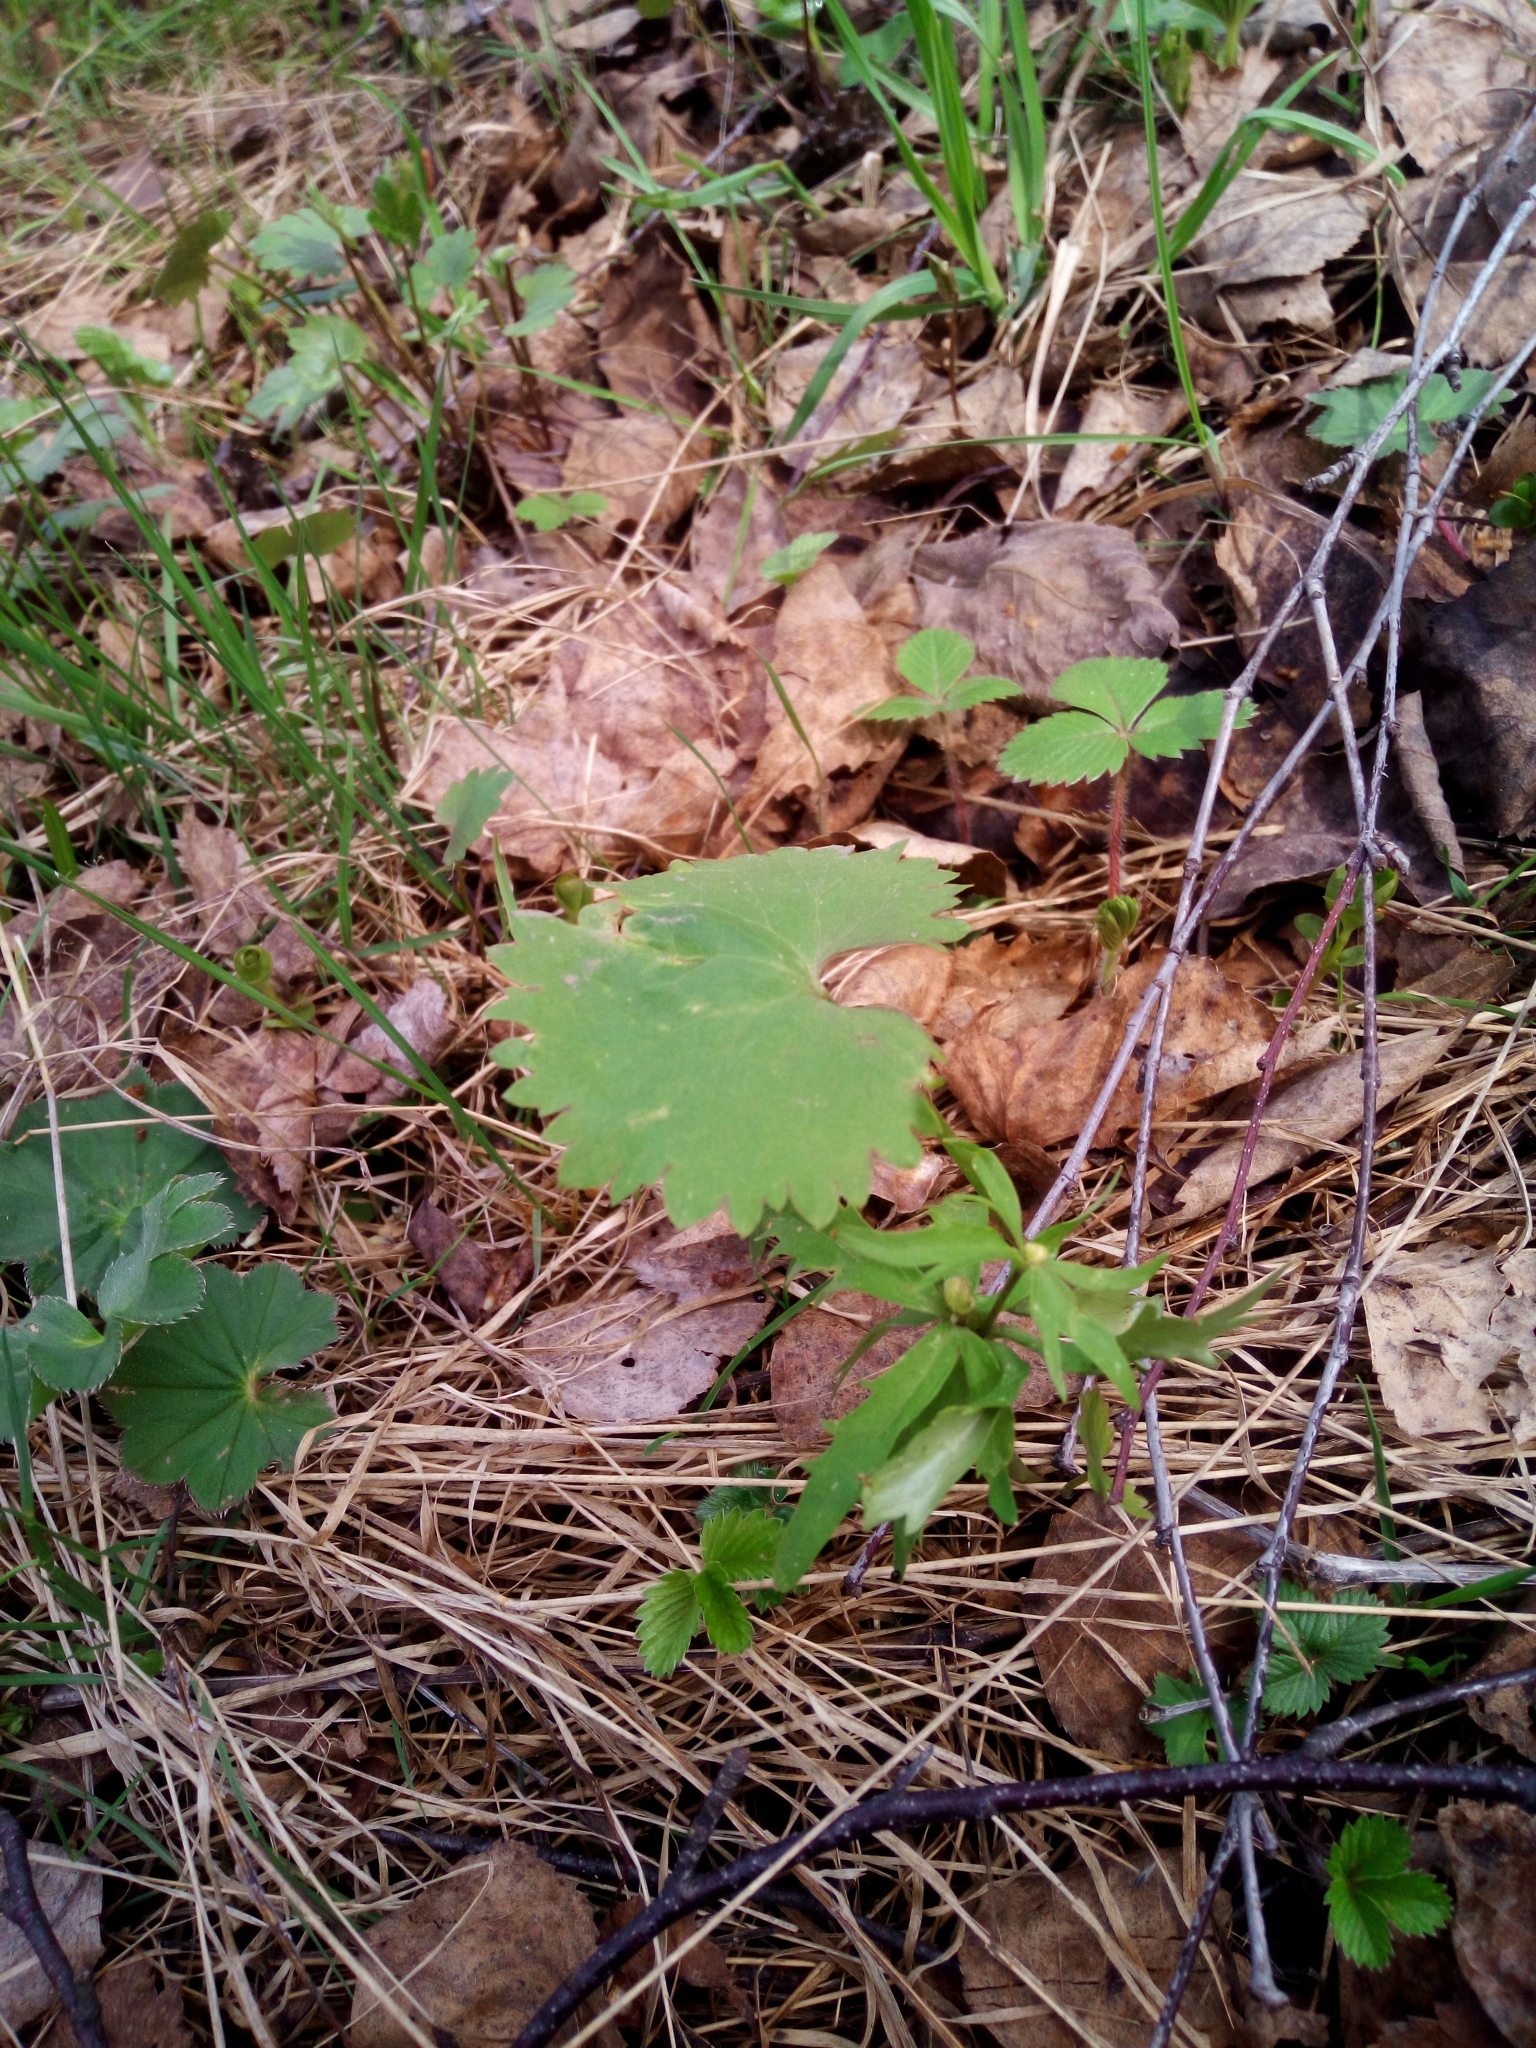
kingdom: Plantae
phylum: Tracheophyta
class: Magnoliopsida
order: Ranunculales
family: Ranunculaceae
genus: Ranunculus
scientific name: Ranunculus cassubicus
